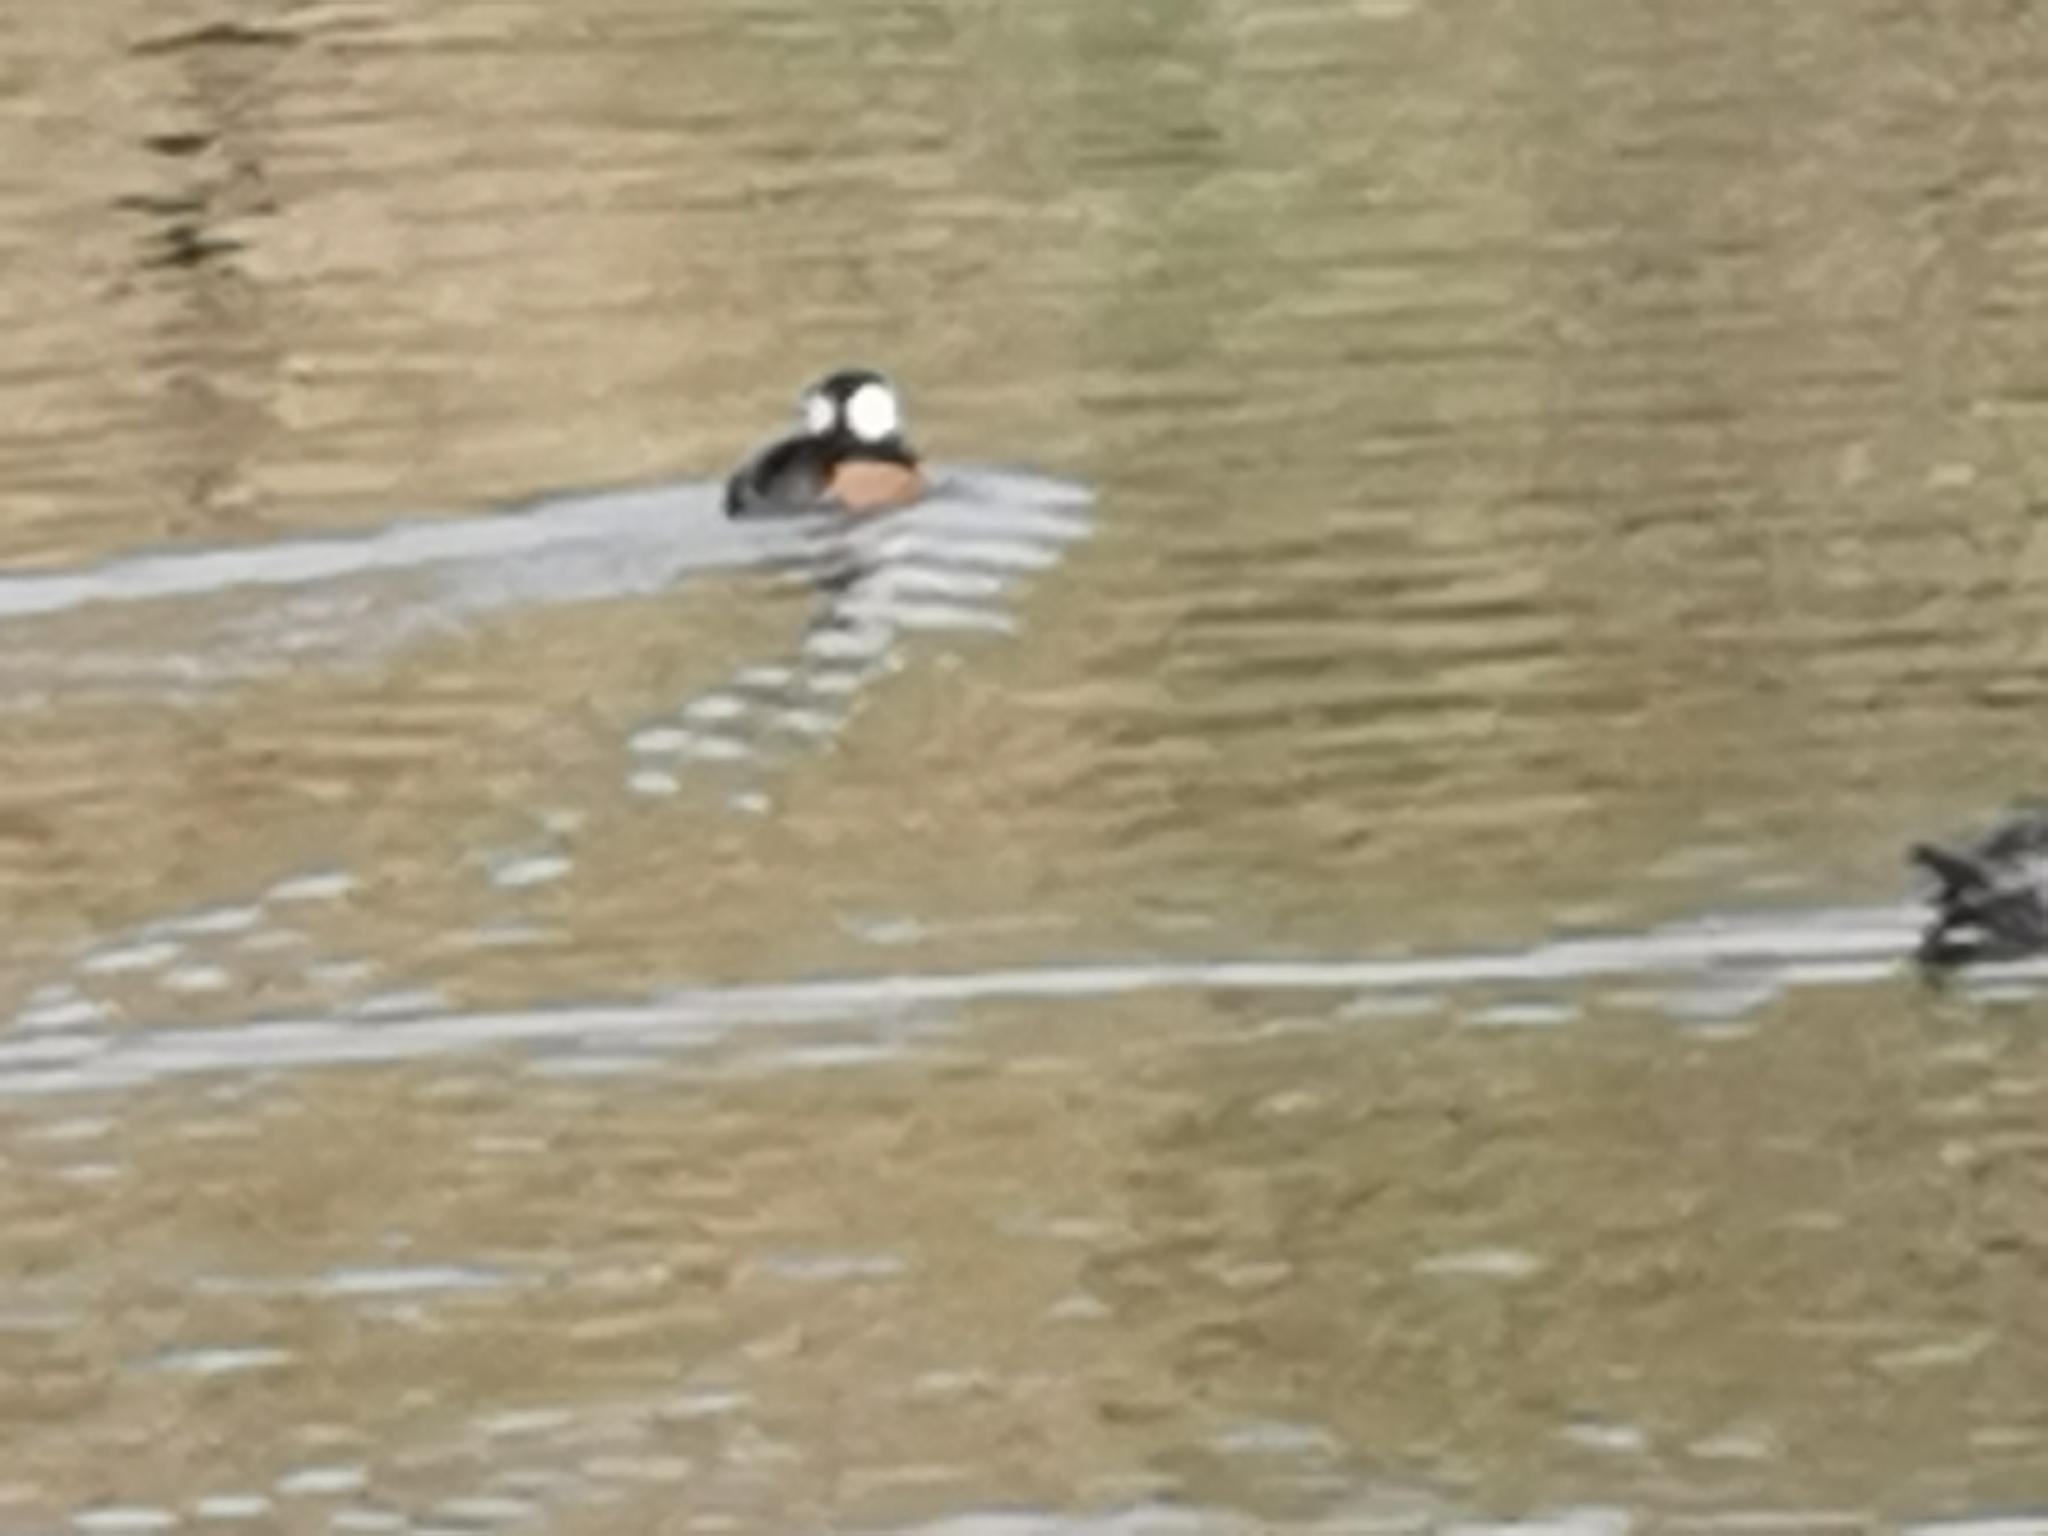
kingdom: Animalia
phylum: Chordata
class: Aves
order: Anseriformes
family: Anatidae
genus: Lophodytes
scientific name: Lophodytes cucullatus
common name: Hooded merganser
